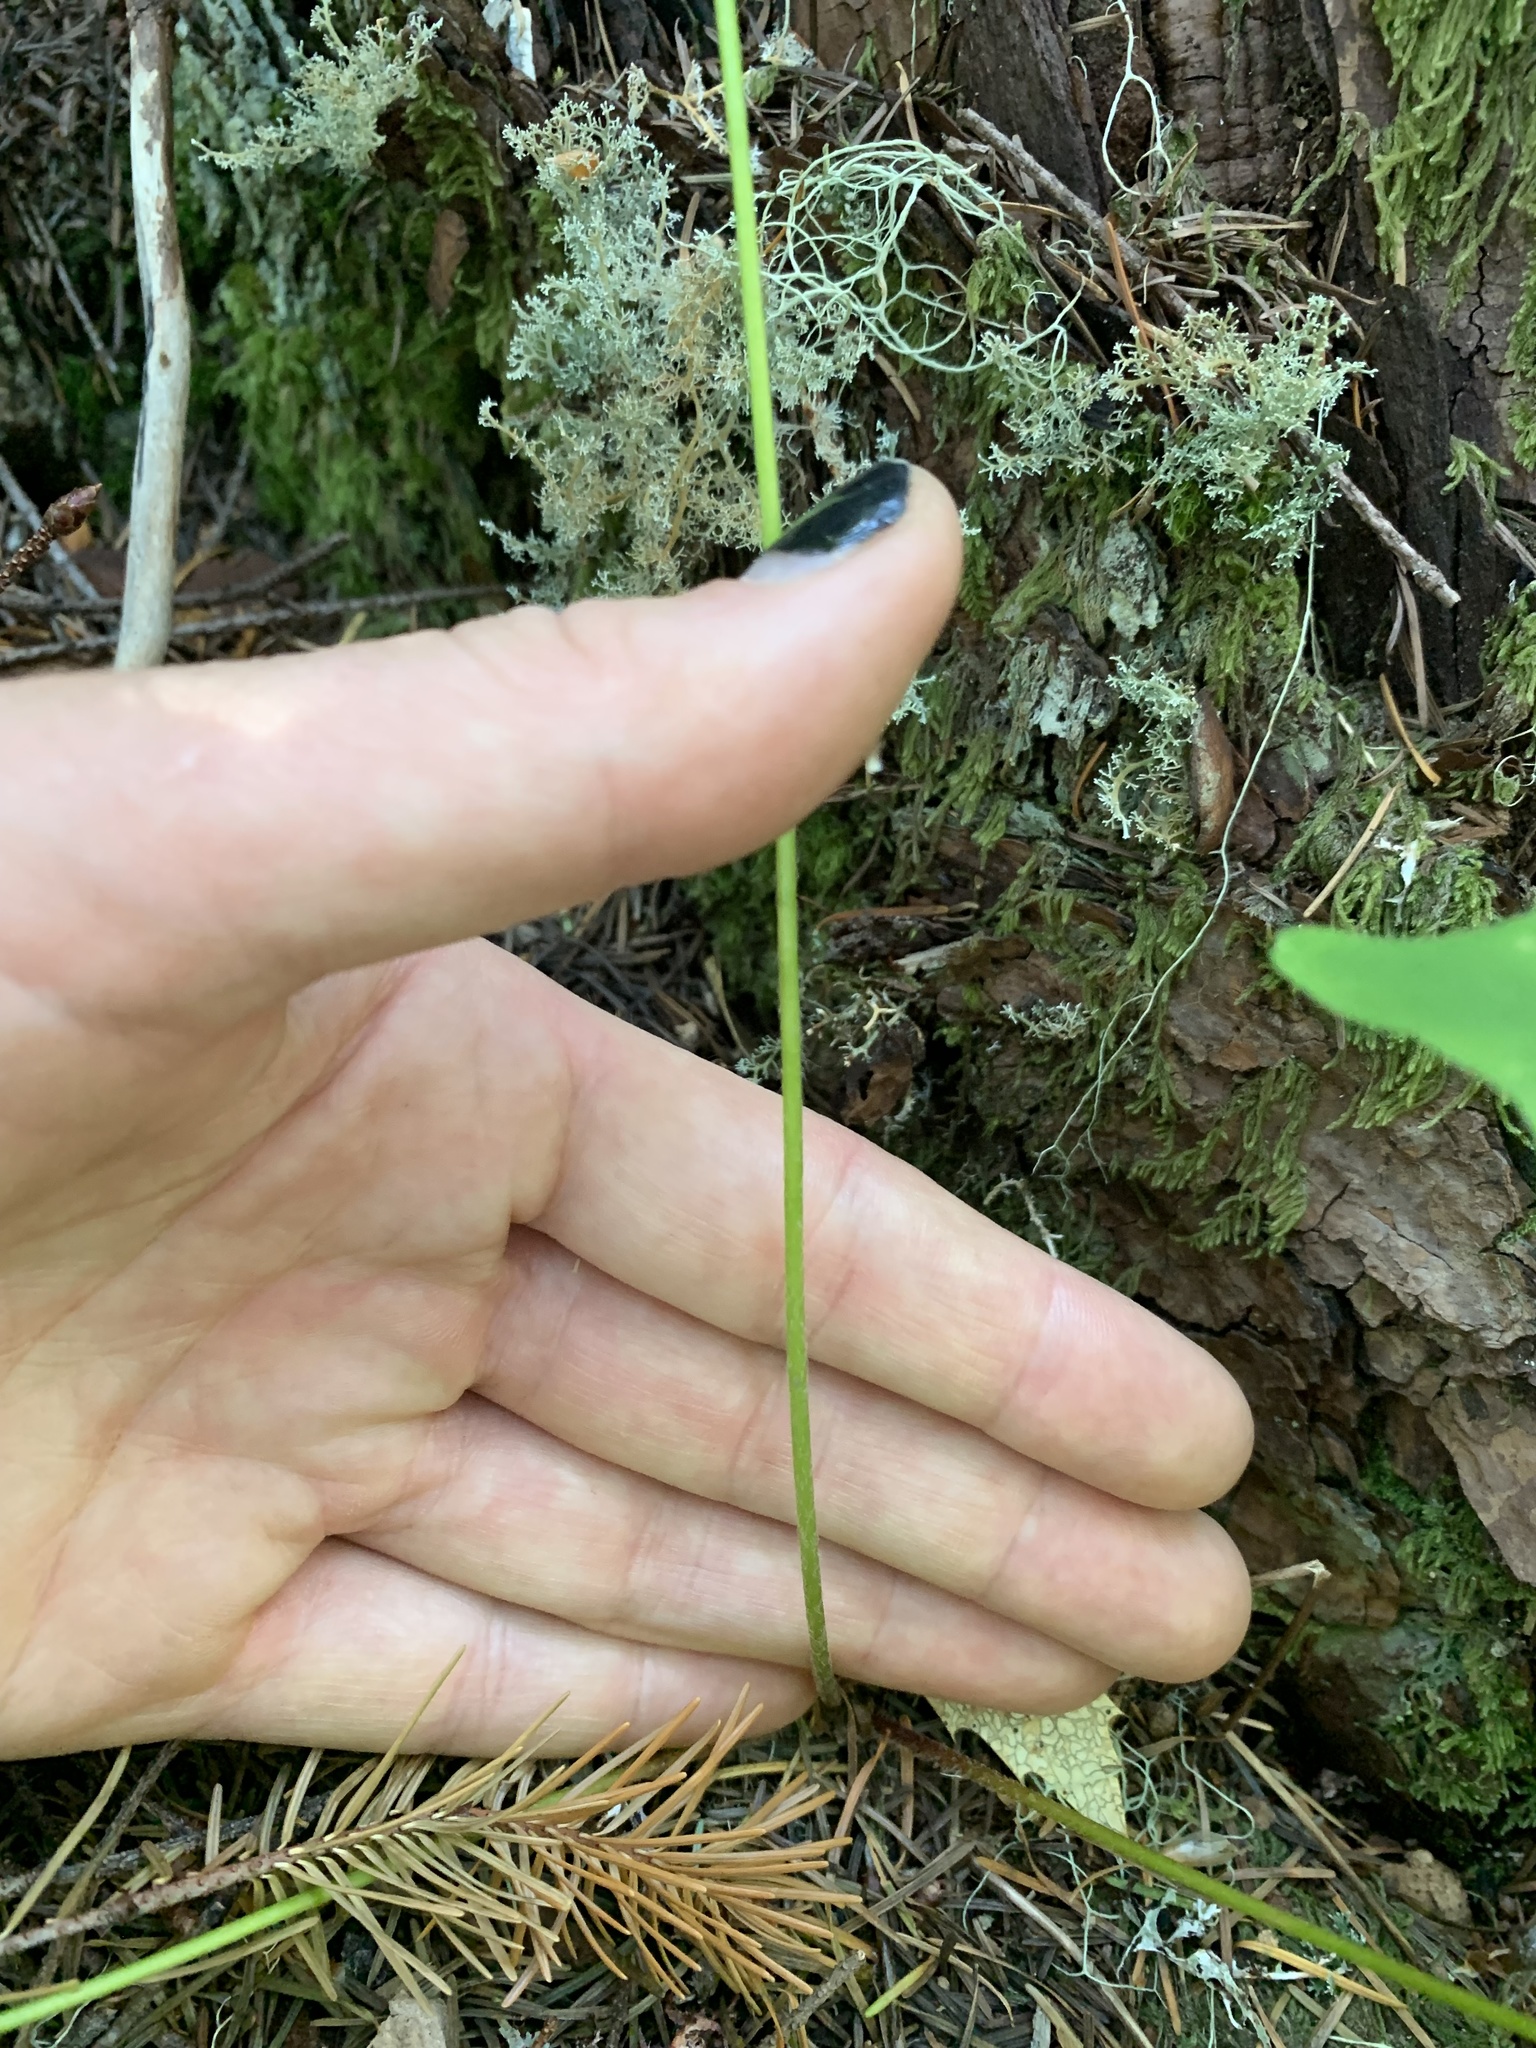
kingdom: Plantae
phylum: Tracheophyta
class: Magnoliopsida
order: Ranunculales
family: Berberidaceae
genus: Vancouveria
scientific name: Vancouveria hexandra
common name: Northern inside-out-flower
